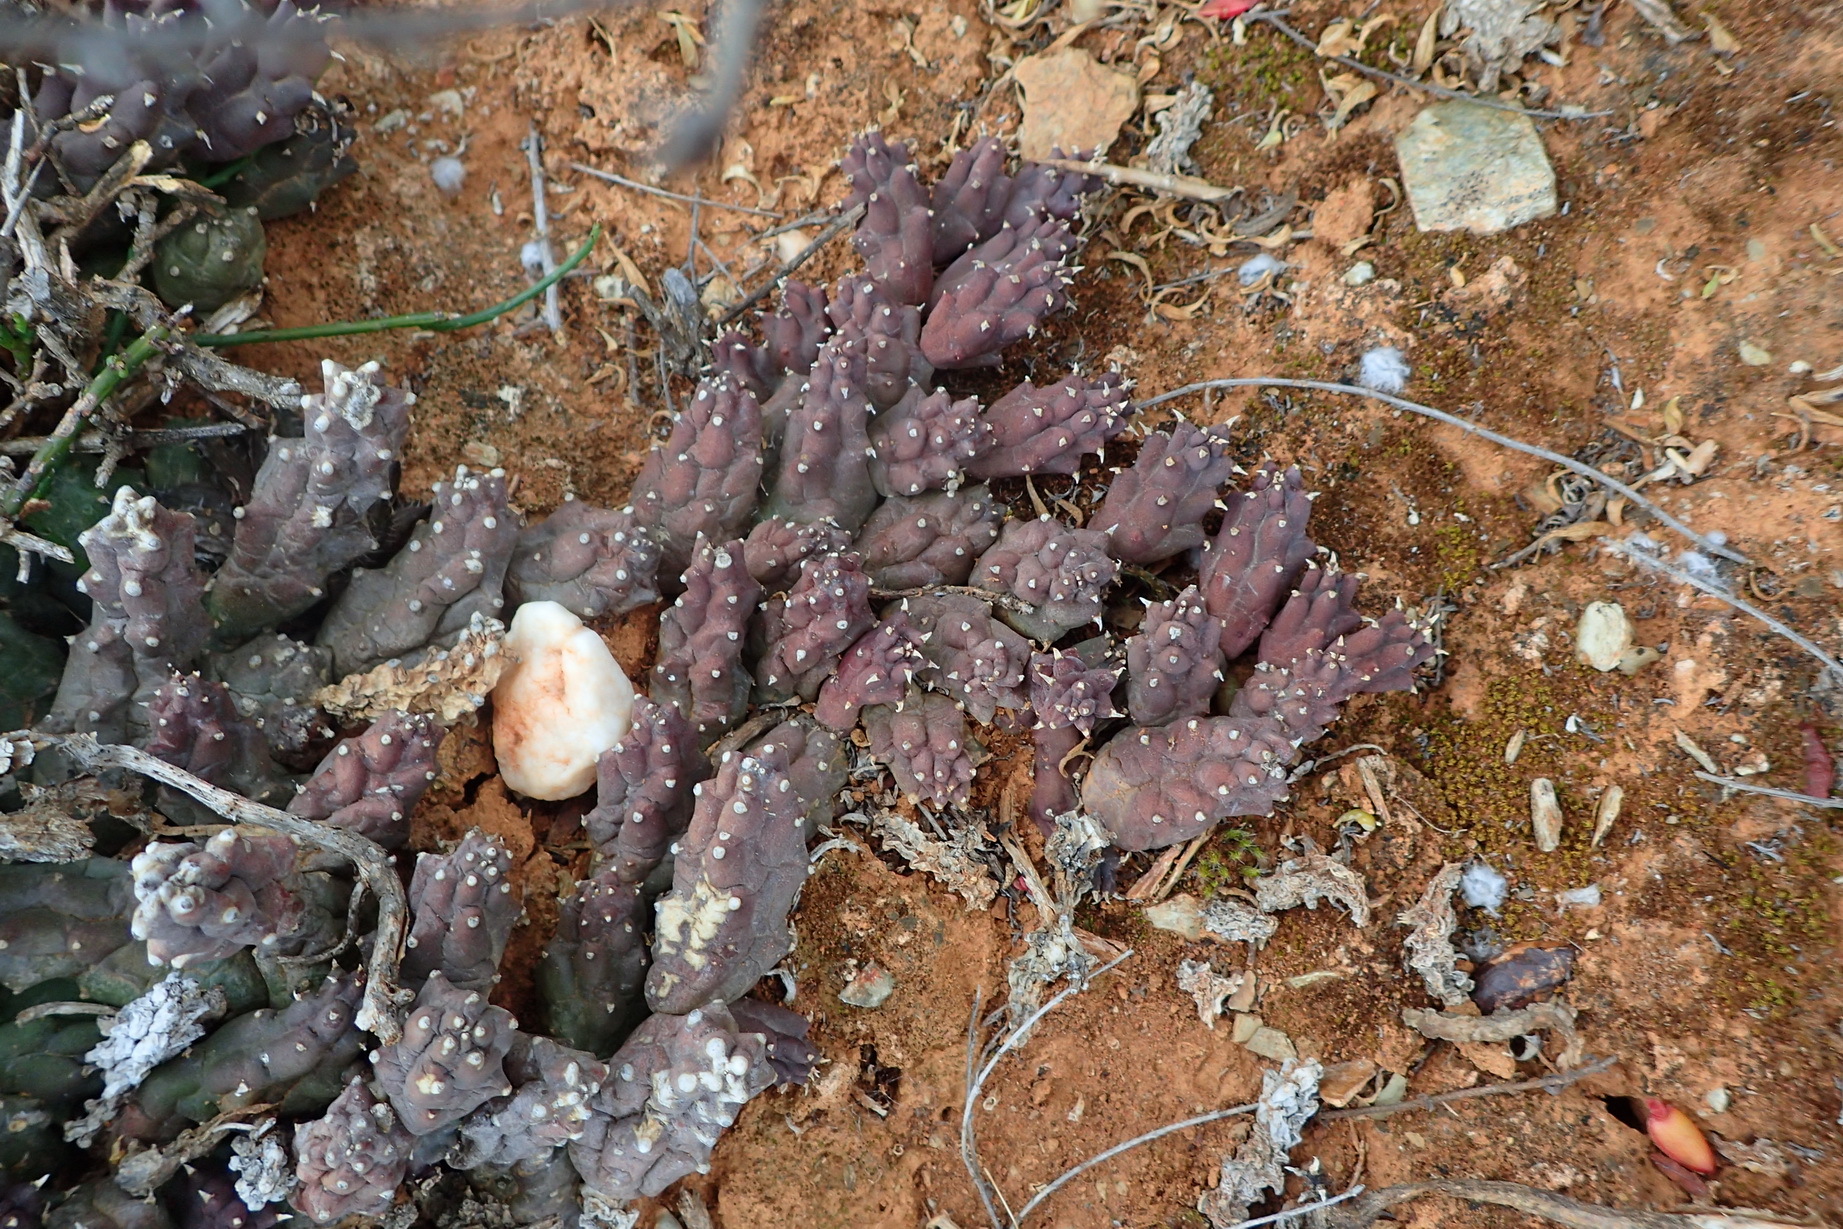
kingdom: Plantae
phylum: Tracheophyta
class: Magnoliopsida
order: Gentianales
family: Apocynaceae
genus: Ceropegia
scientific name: Ceropegia geminata
